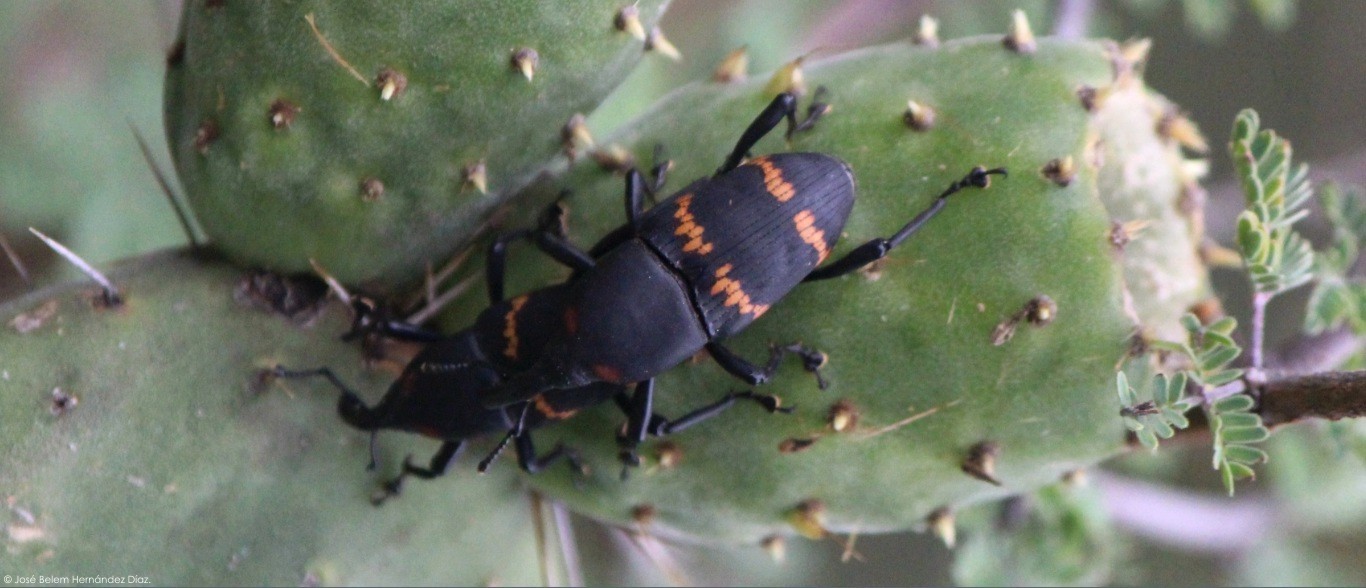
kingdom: Animalia
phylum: Arthropoda
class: Insecta
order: Coleoptera
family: Dryophthoridae
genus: Cactophagus
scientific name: Cactophagus spinolae
